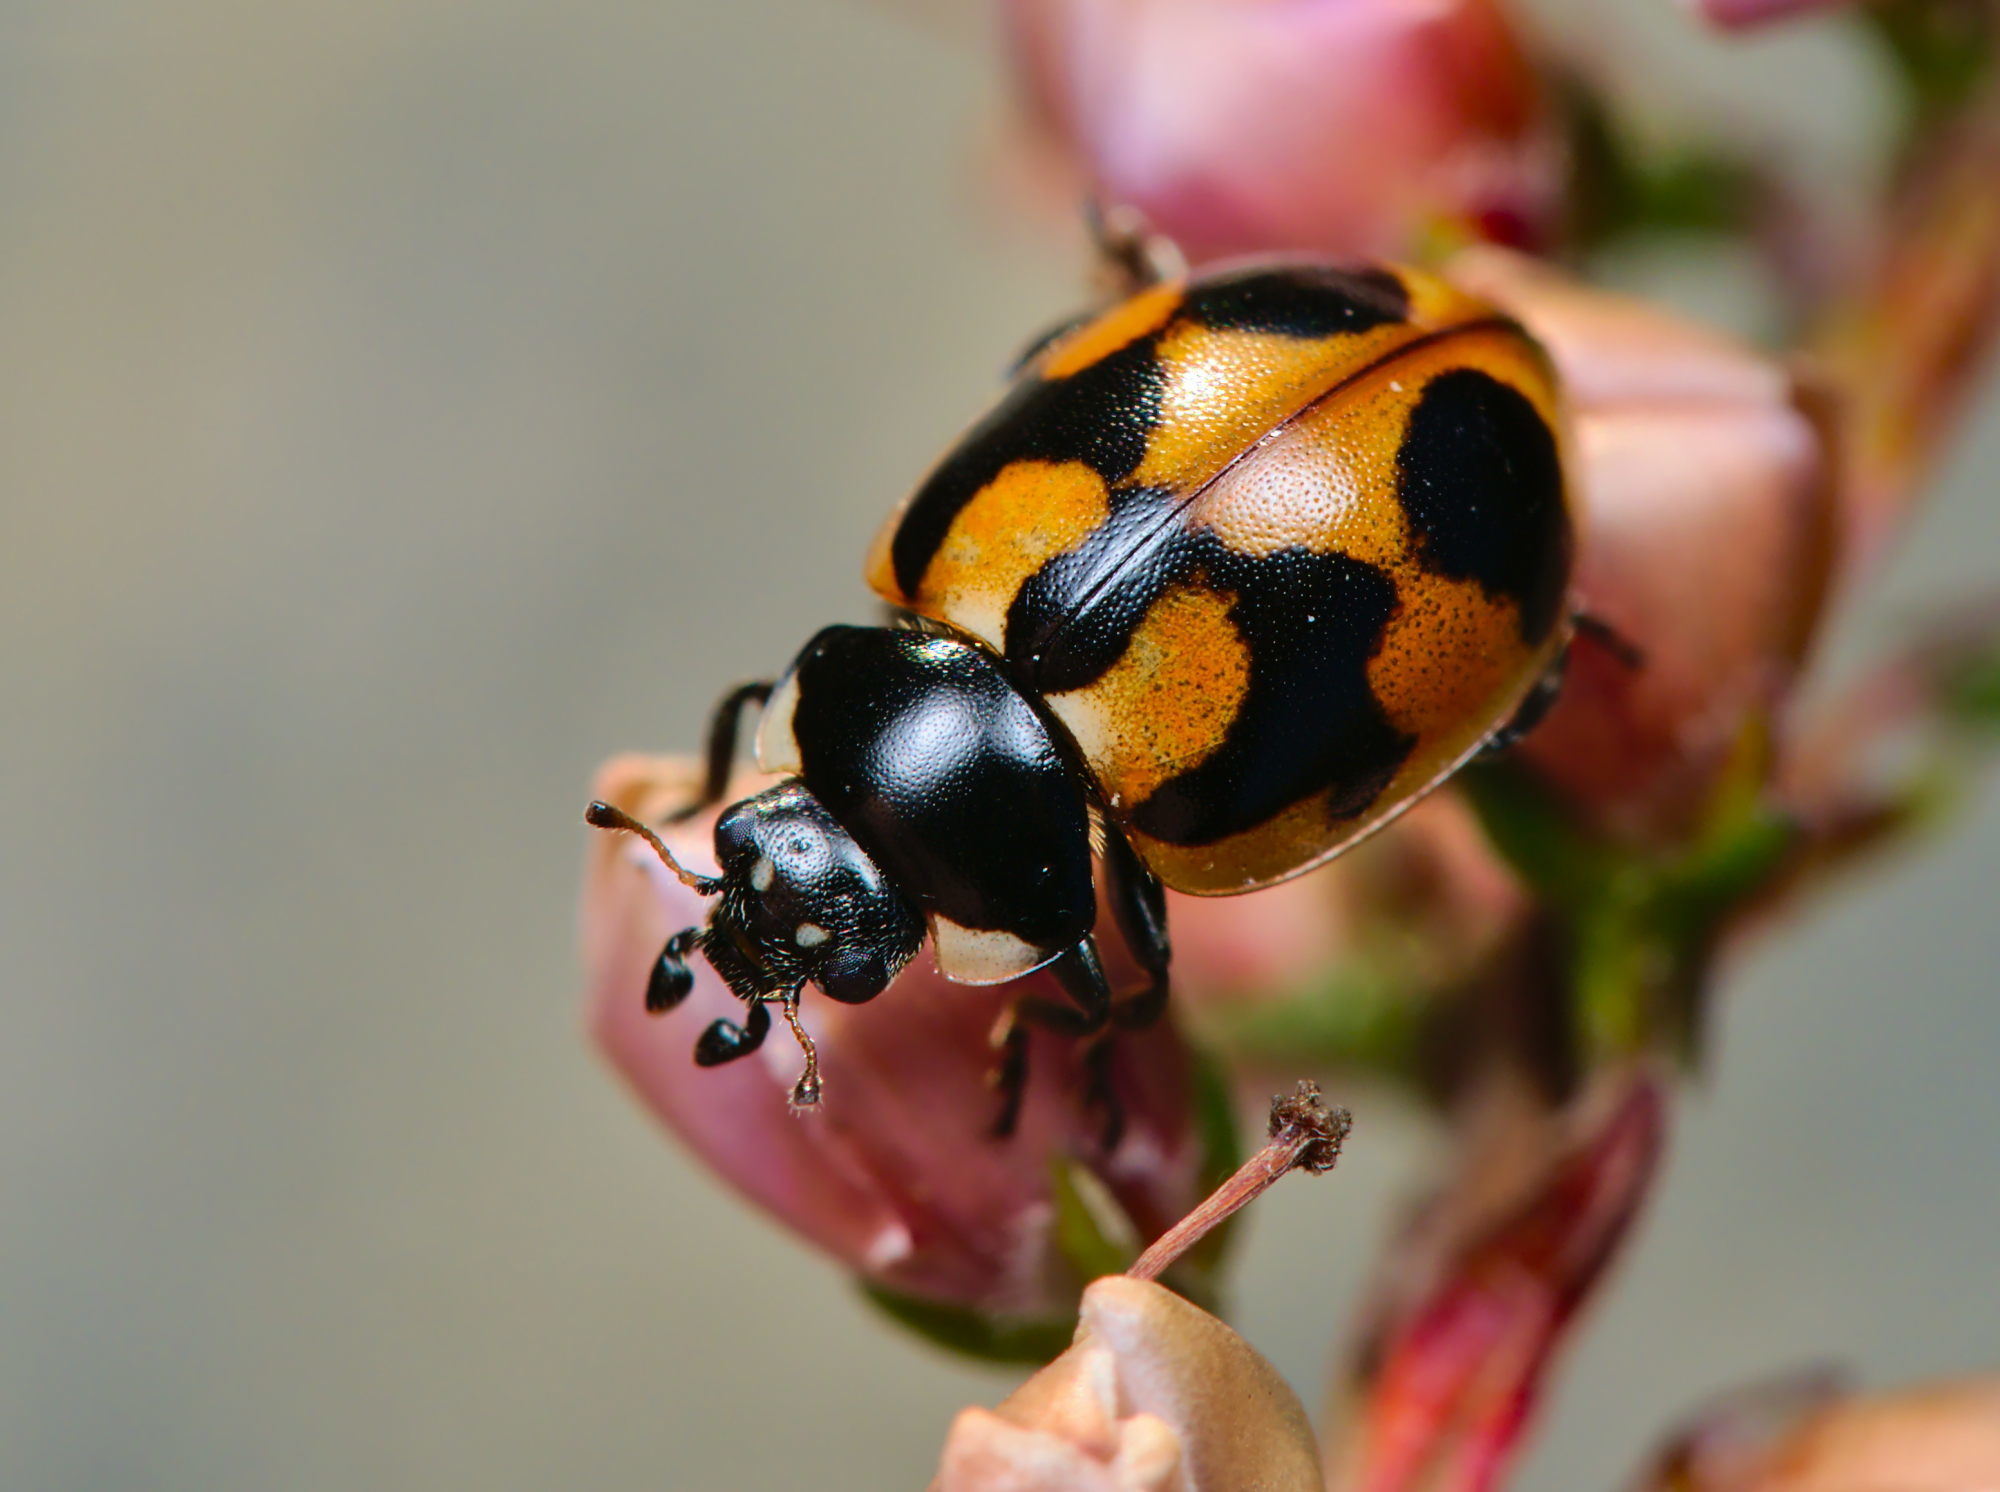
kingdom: Animalia
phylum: Arthropoda
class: Insecta
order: Coleoptera
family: Coccinellidae
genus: Coccinella
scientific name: Coccinella hieroglyphica
